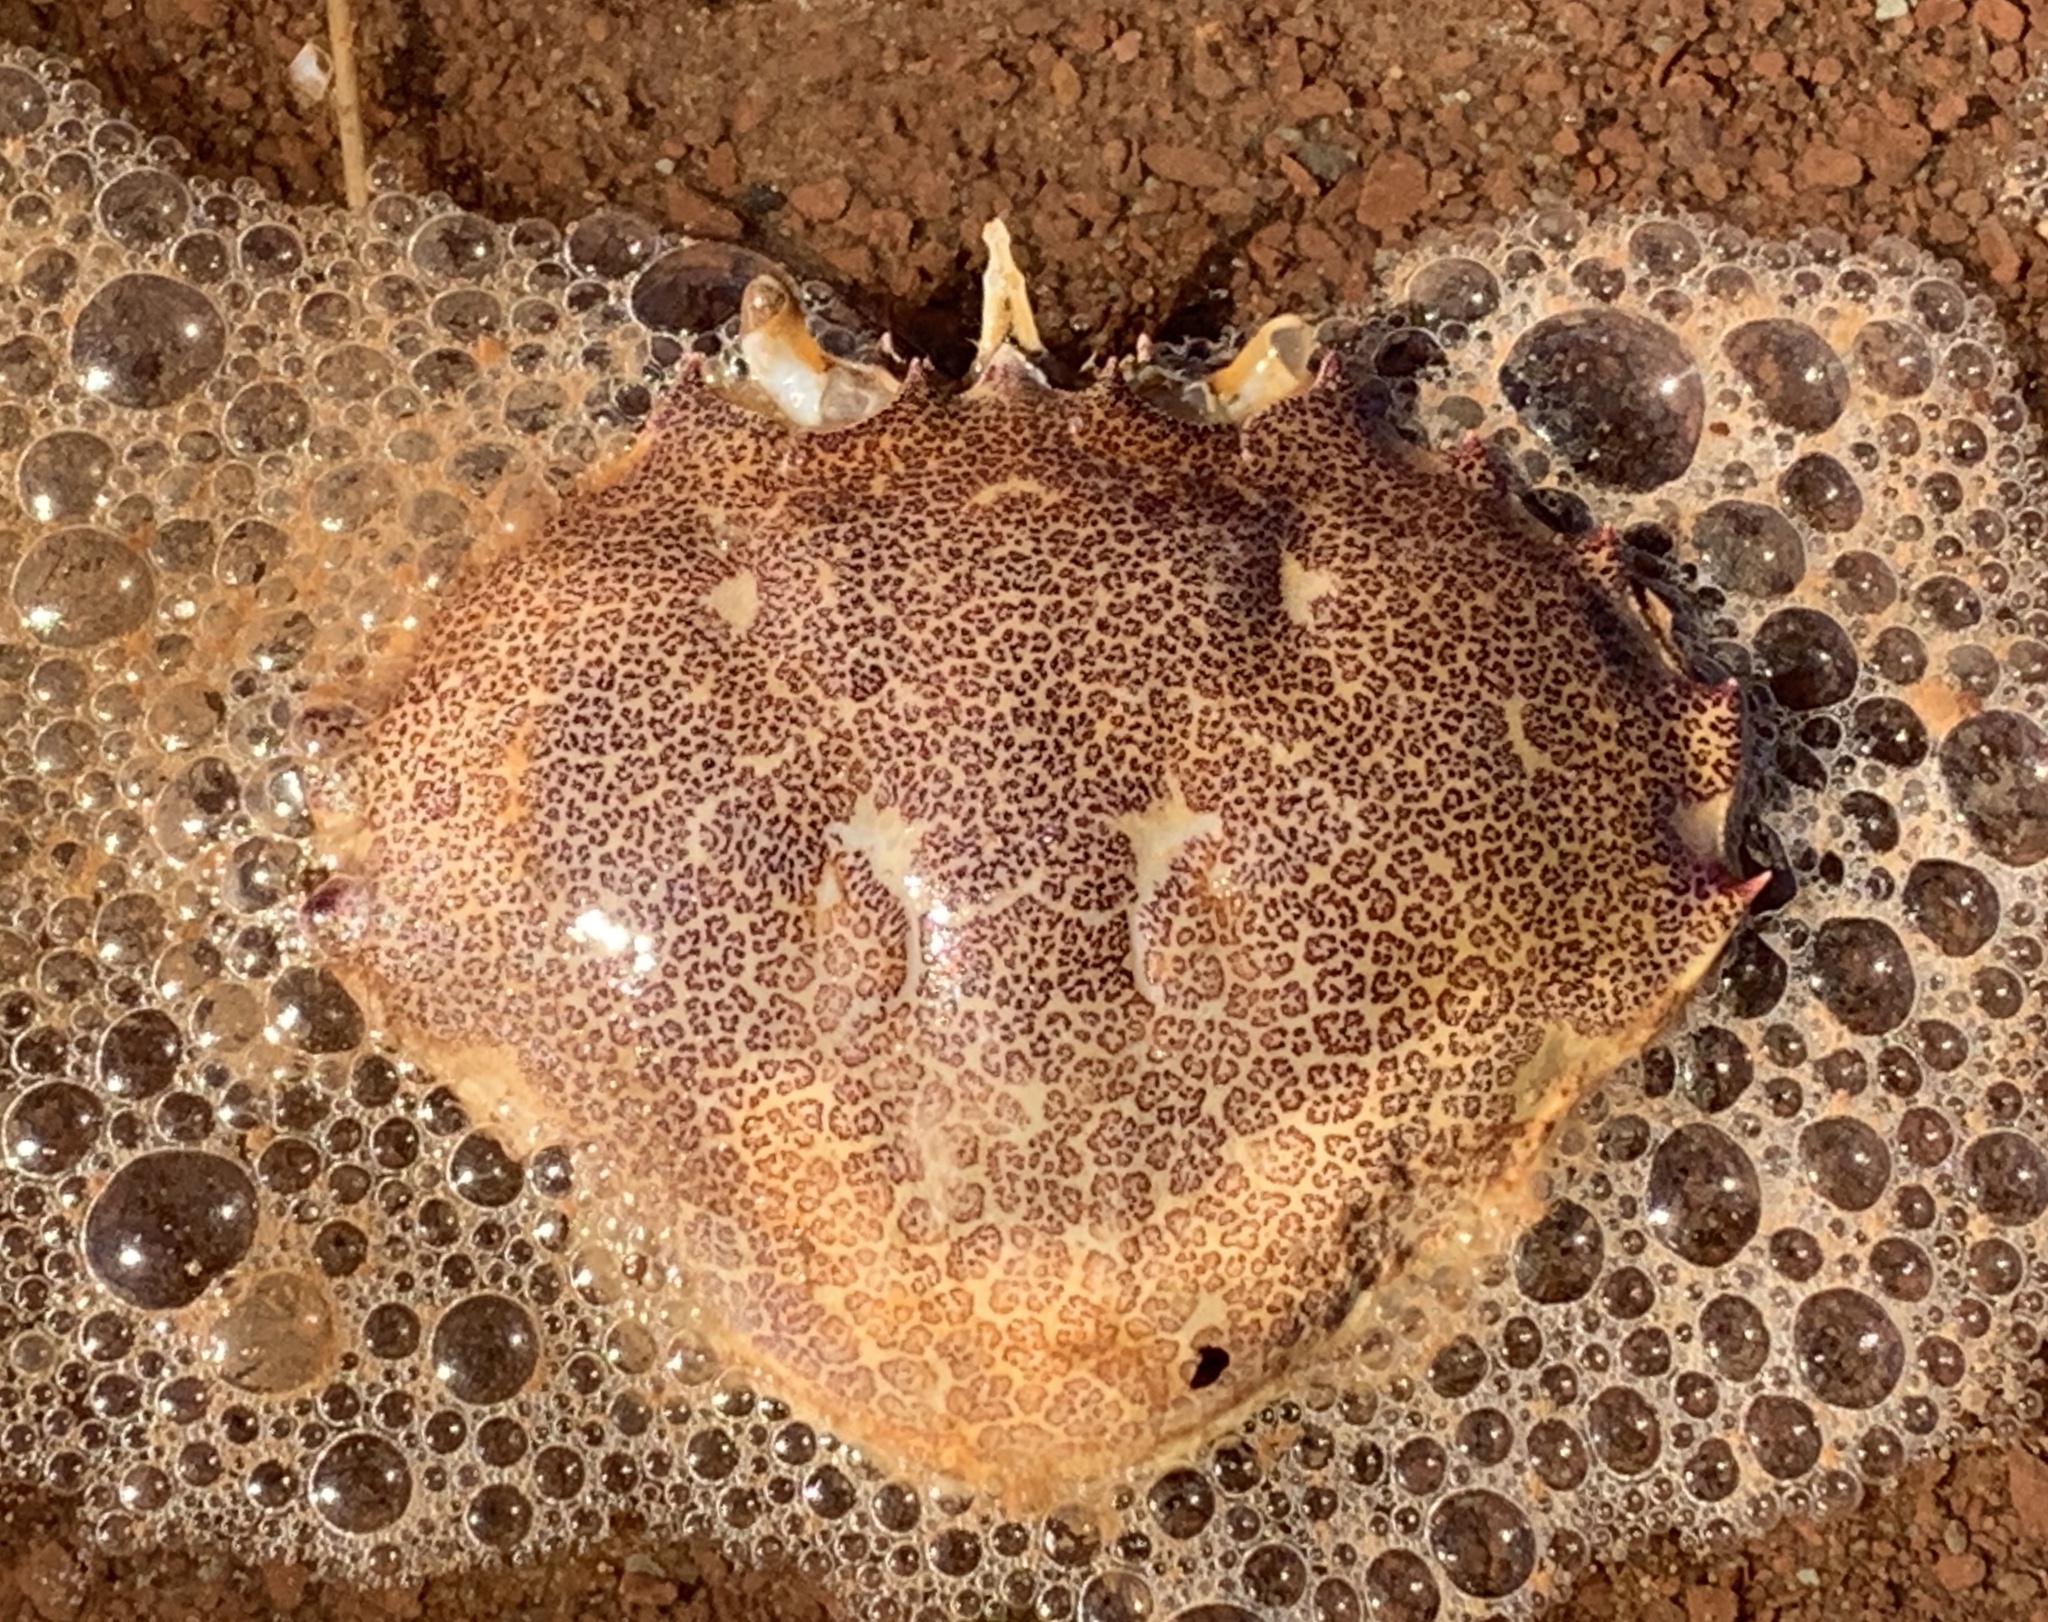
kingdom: Animalia
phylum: Arthropoda
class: Malacostraca
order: Decapoda
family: Ovalipidae
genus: Ovalipes
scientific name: Ovalipes ocellatus
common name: Lady crab
